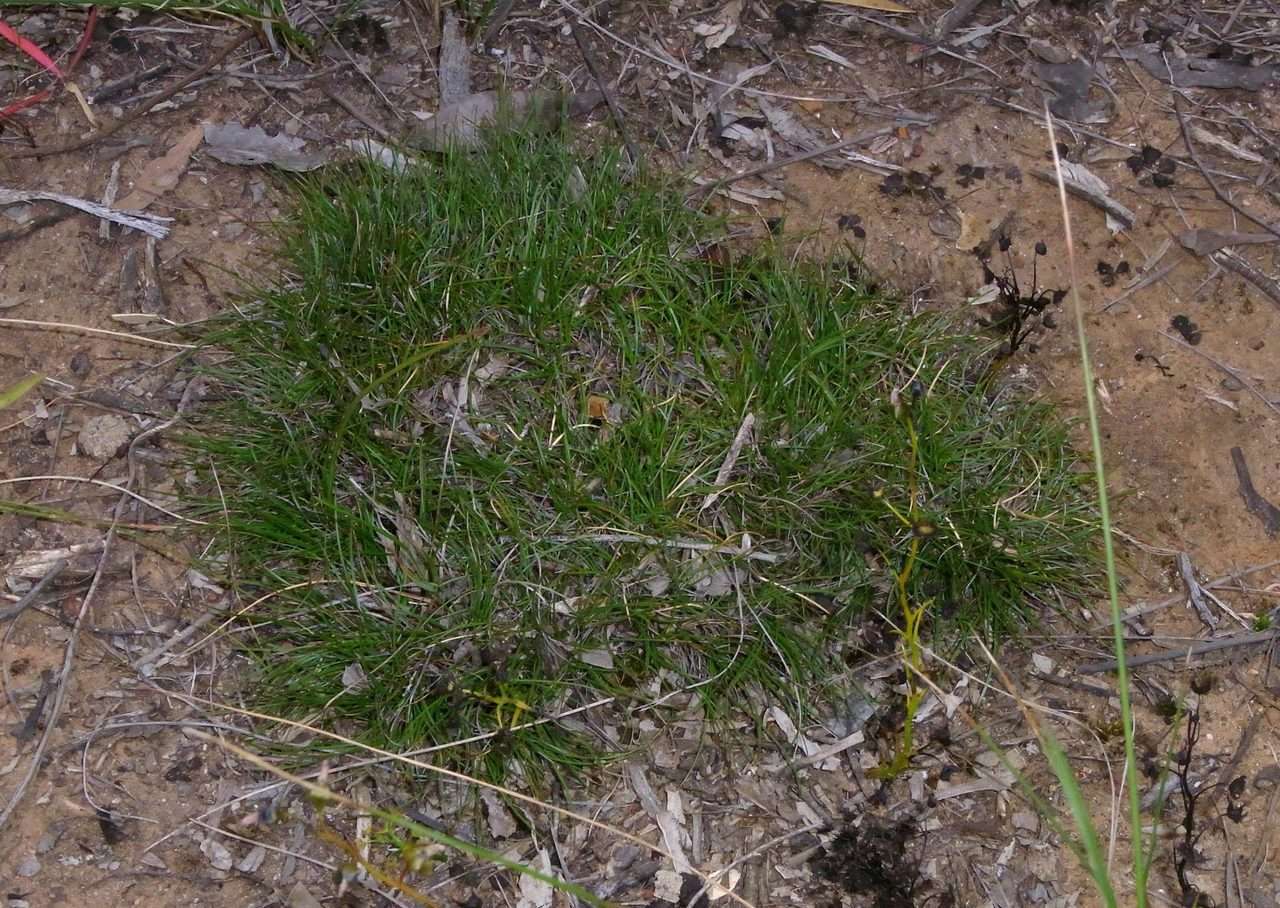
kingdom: Plantae
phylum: Tracheophyta
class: Liliopsida
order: Poales
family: Cyperaceae
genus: Schoenus
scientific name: Schoenus breviculmis
